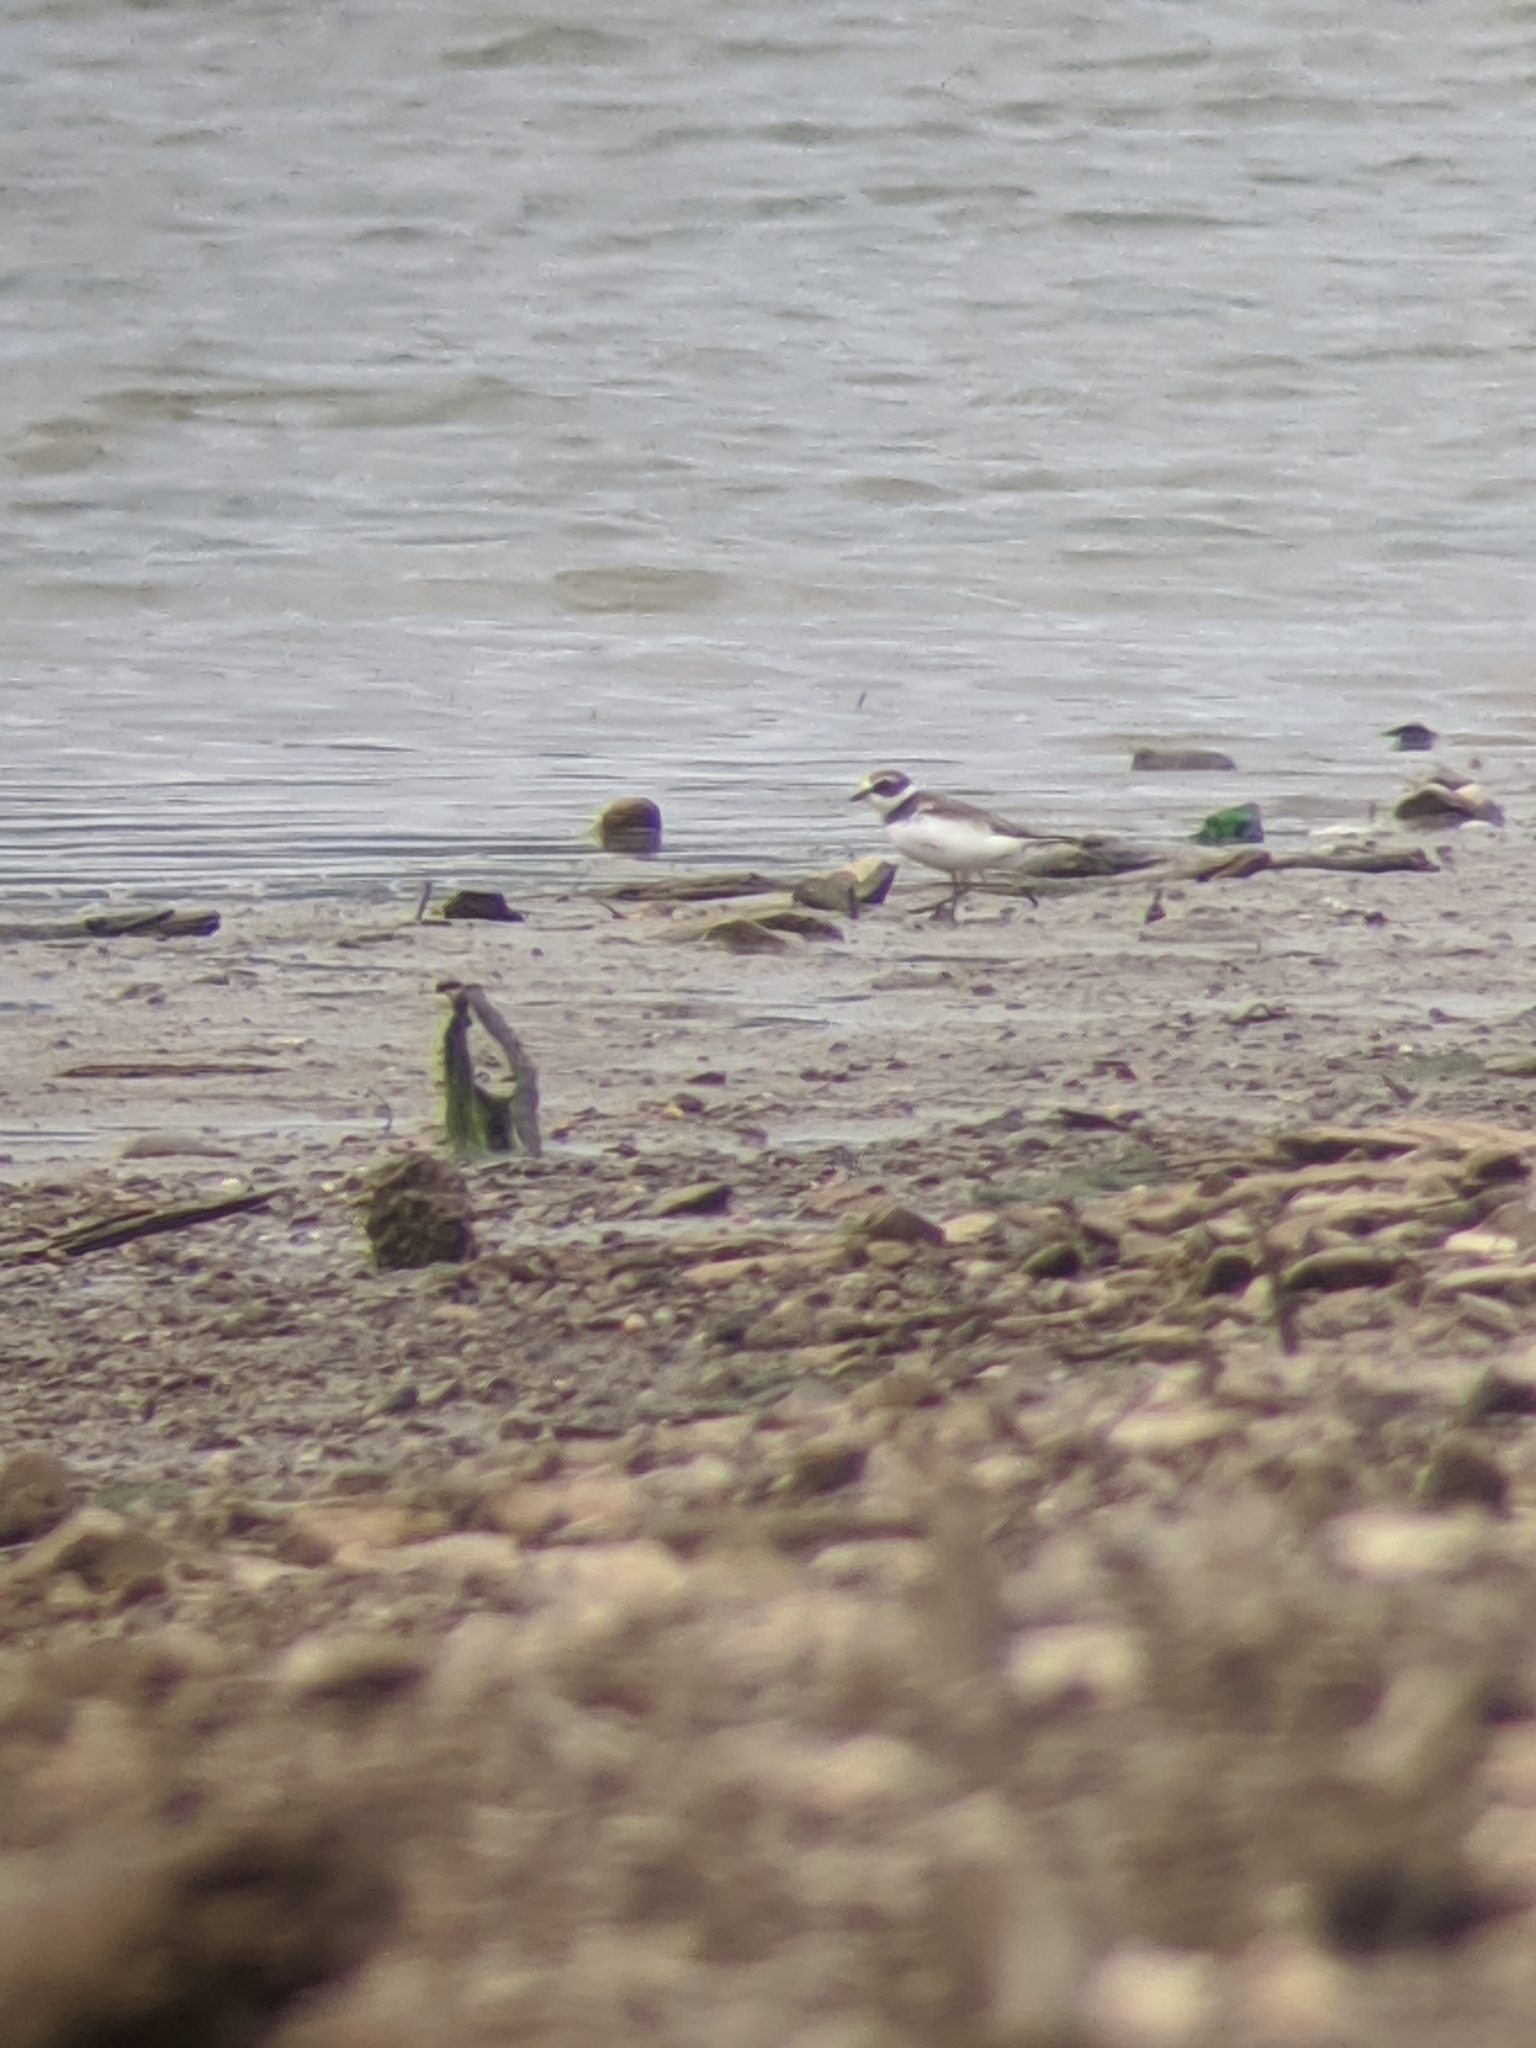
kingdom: Animalia
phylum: Chordata
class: Aves
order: Charadriiformes
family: Charadriidae
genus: Charadrius
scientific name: Charadrius semipalmatus
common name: Semipalmated plover
